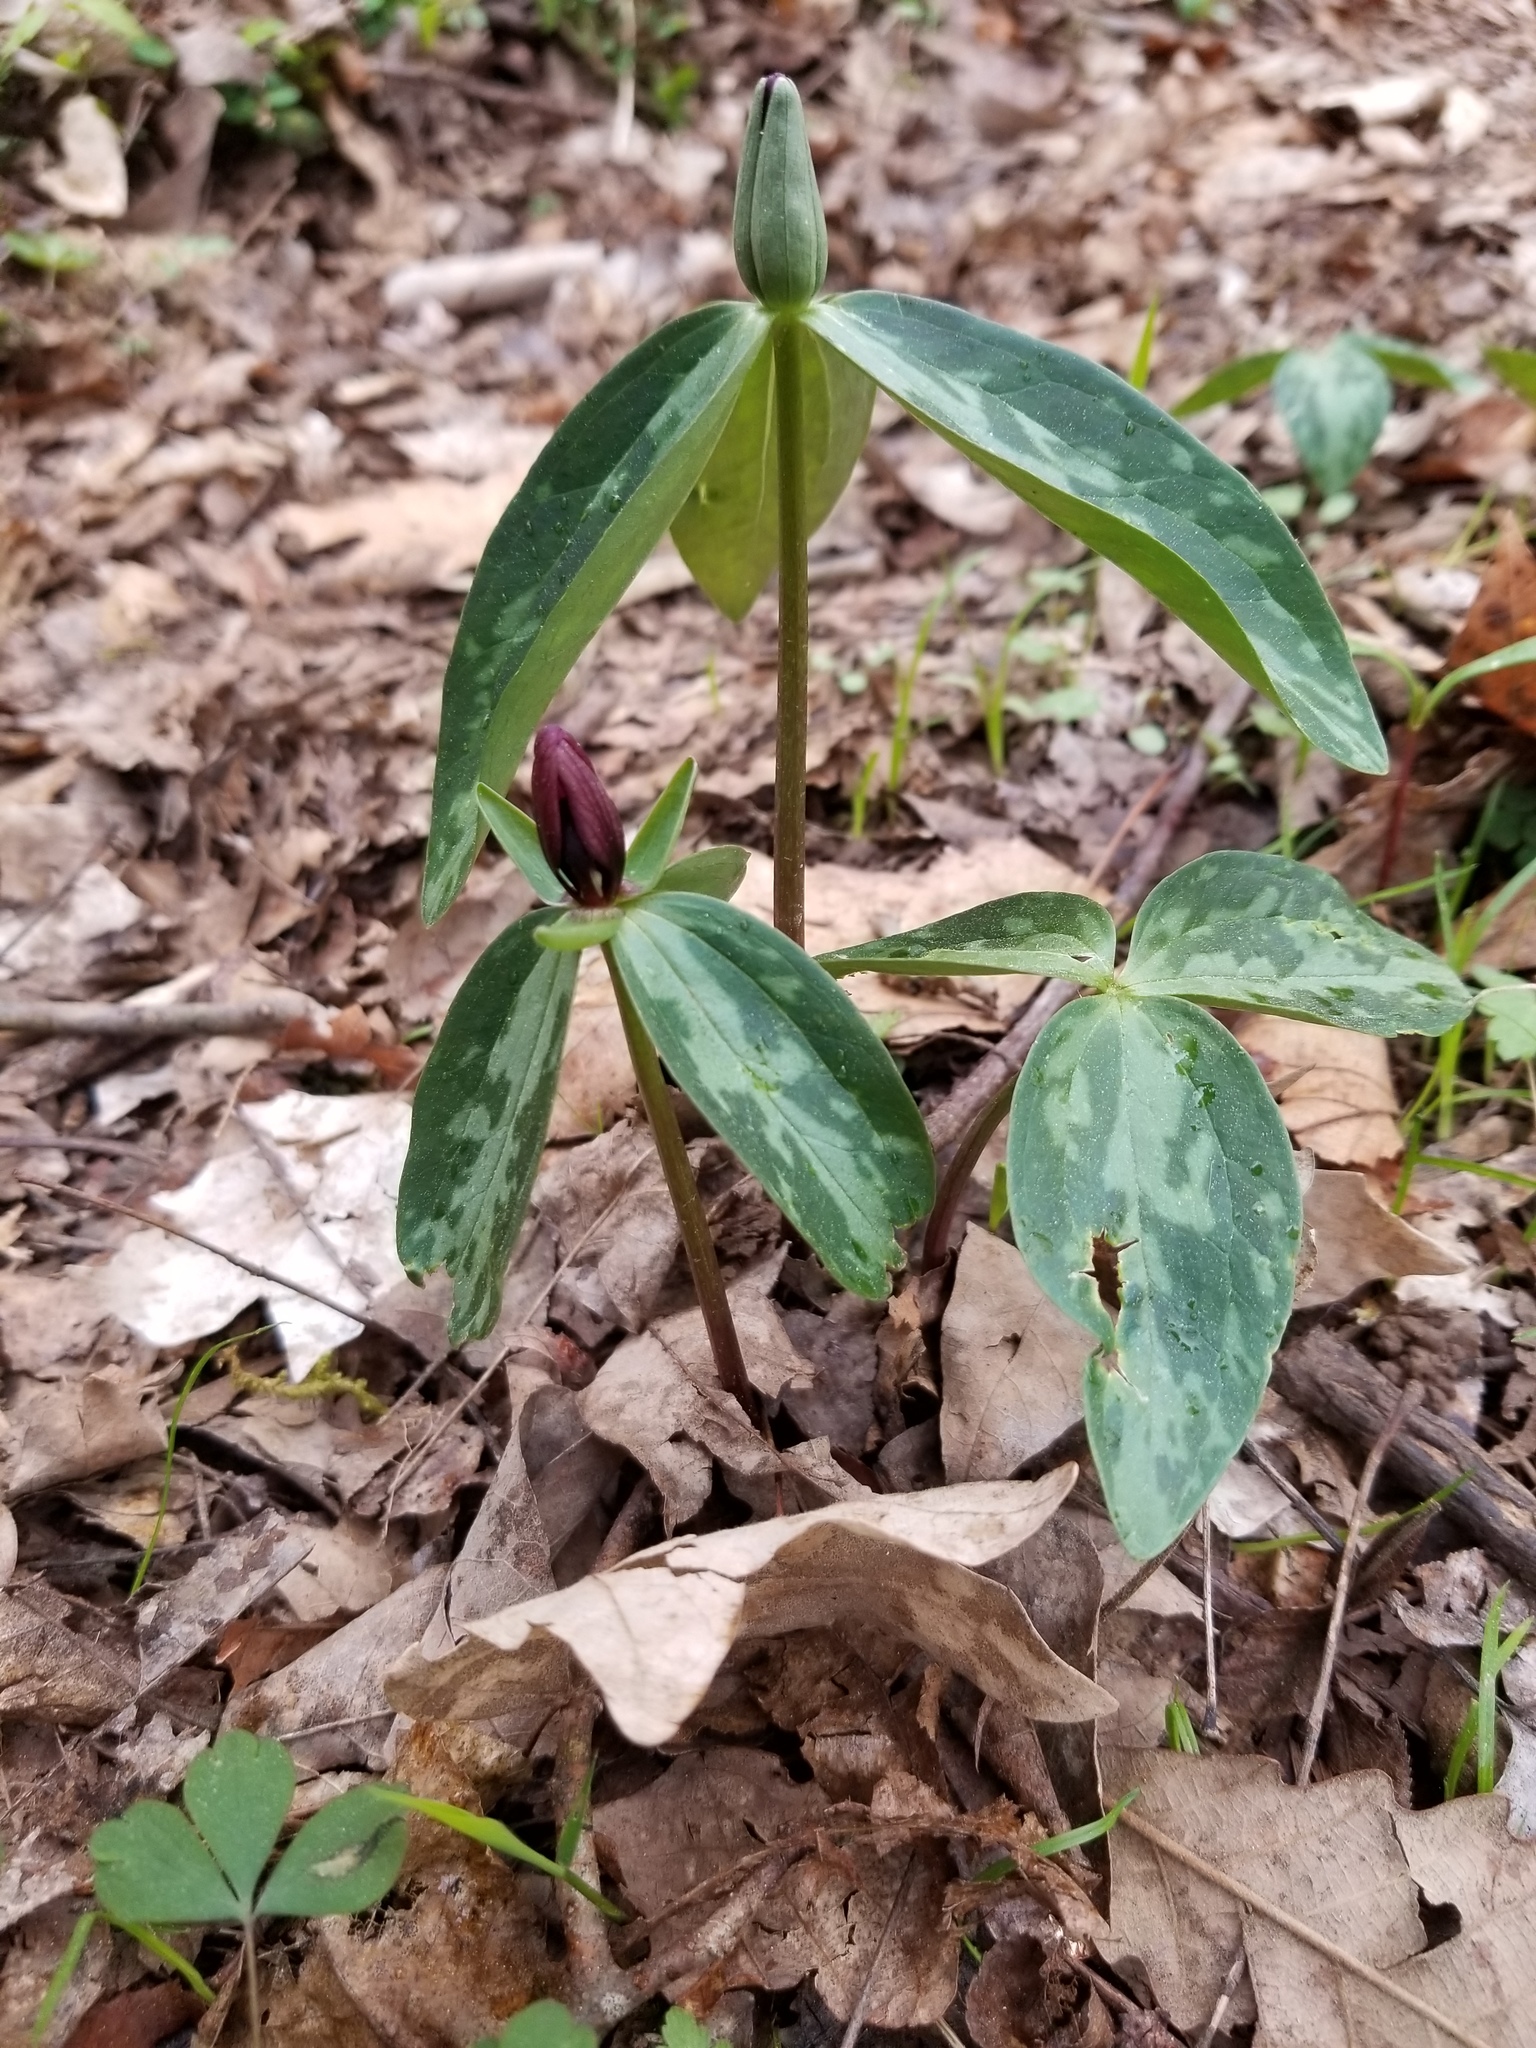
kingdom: Plantae
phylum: Tracheophyta
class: Liliopsida
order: Liliales
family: Melanthiaceae
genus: Trillium
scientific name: Trillium lancifolium
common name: Lance-leaved trillium
